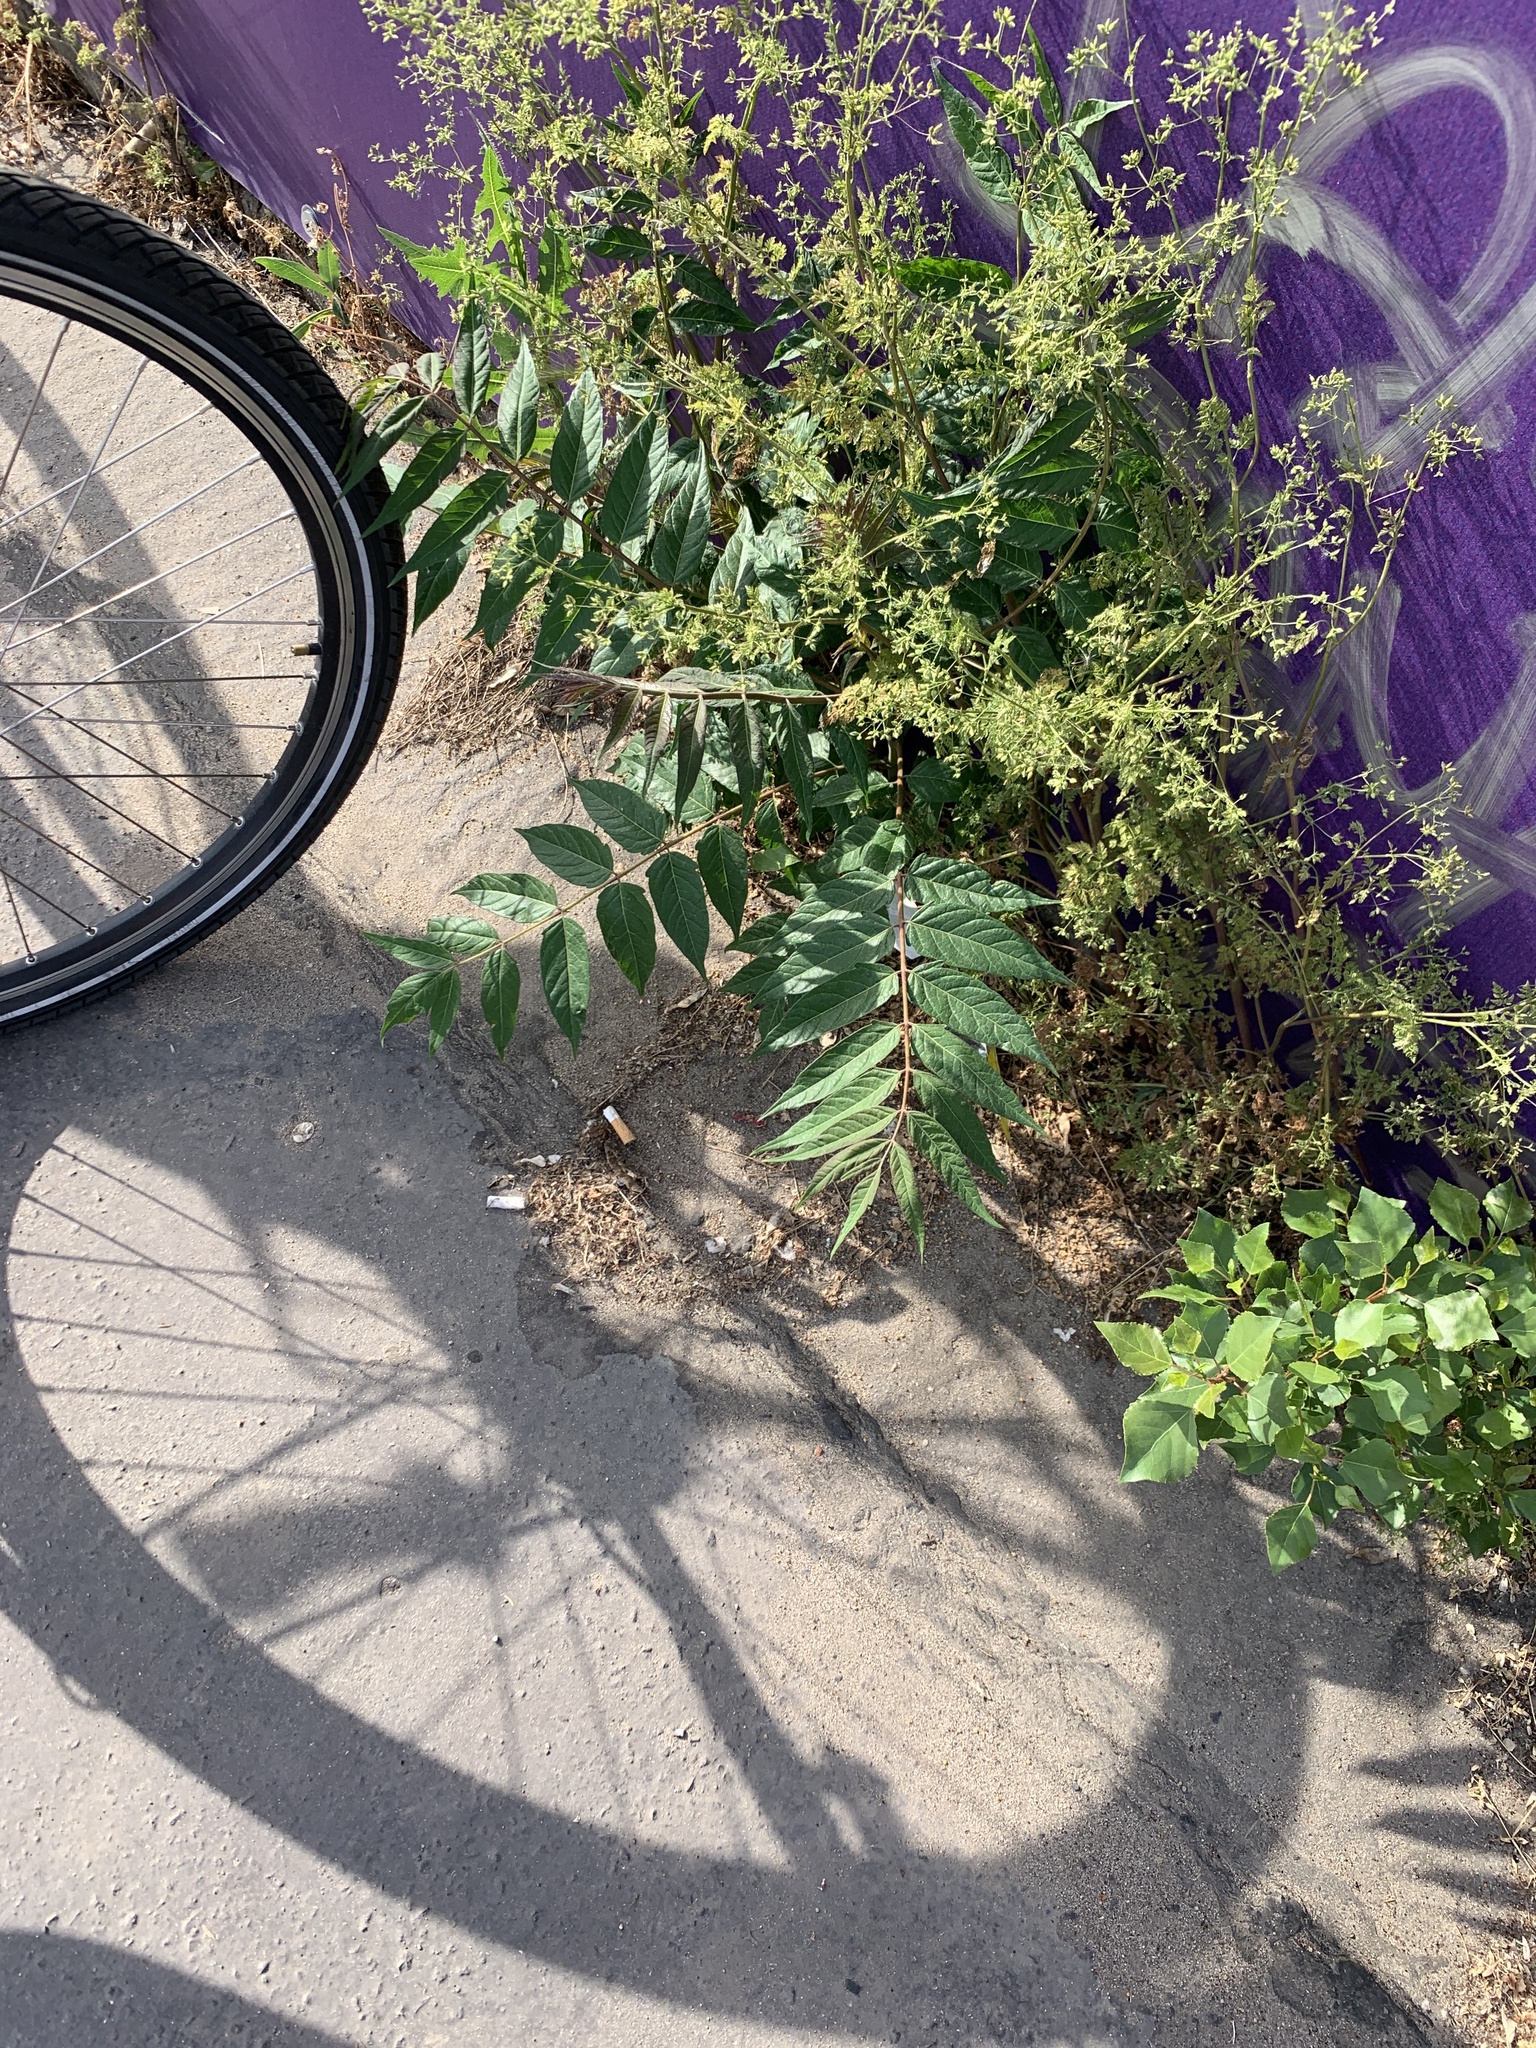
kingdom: Plantae
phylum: Tracheophyta
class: Magnoliopsida
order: Sapindales
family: Simaroubaceae
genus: Ailanthus
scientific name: Ailanthus altissima
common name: Tree-of-heaven
